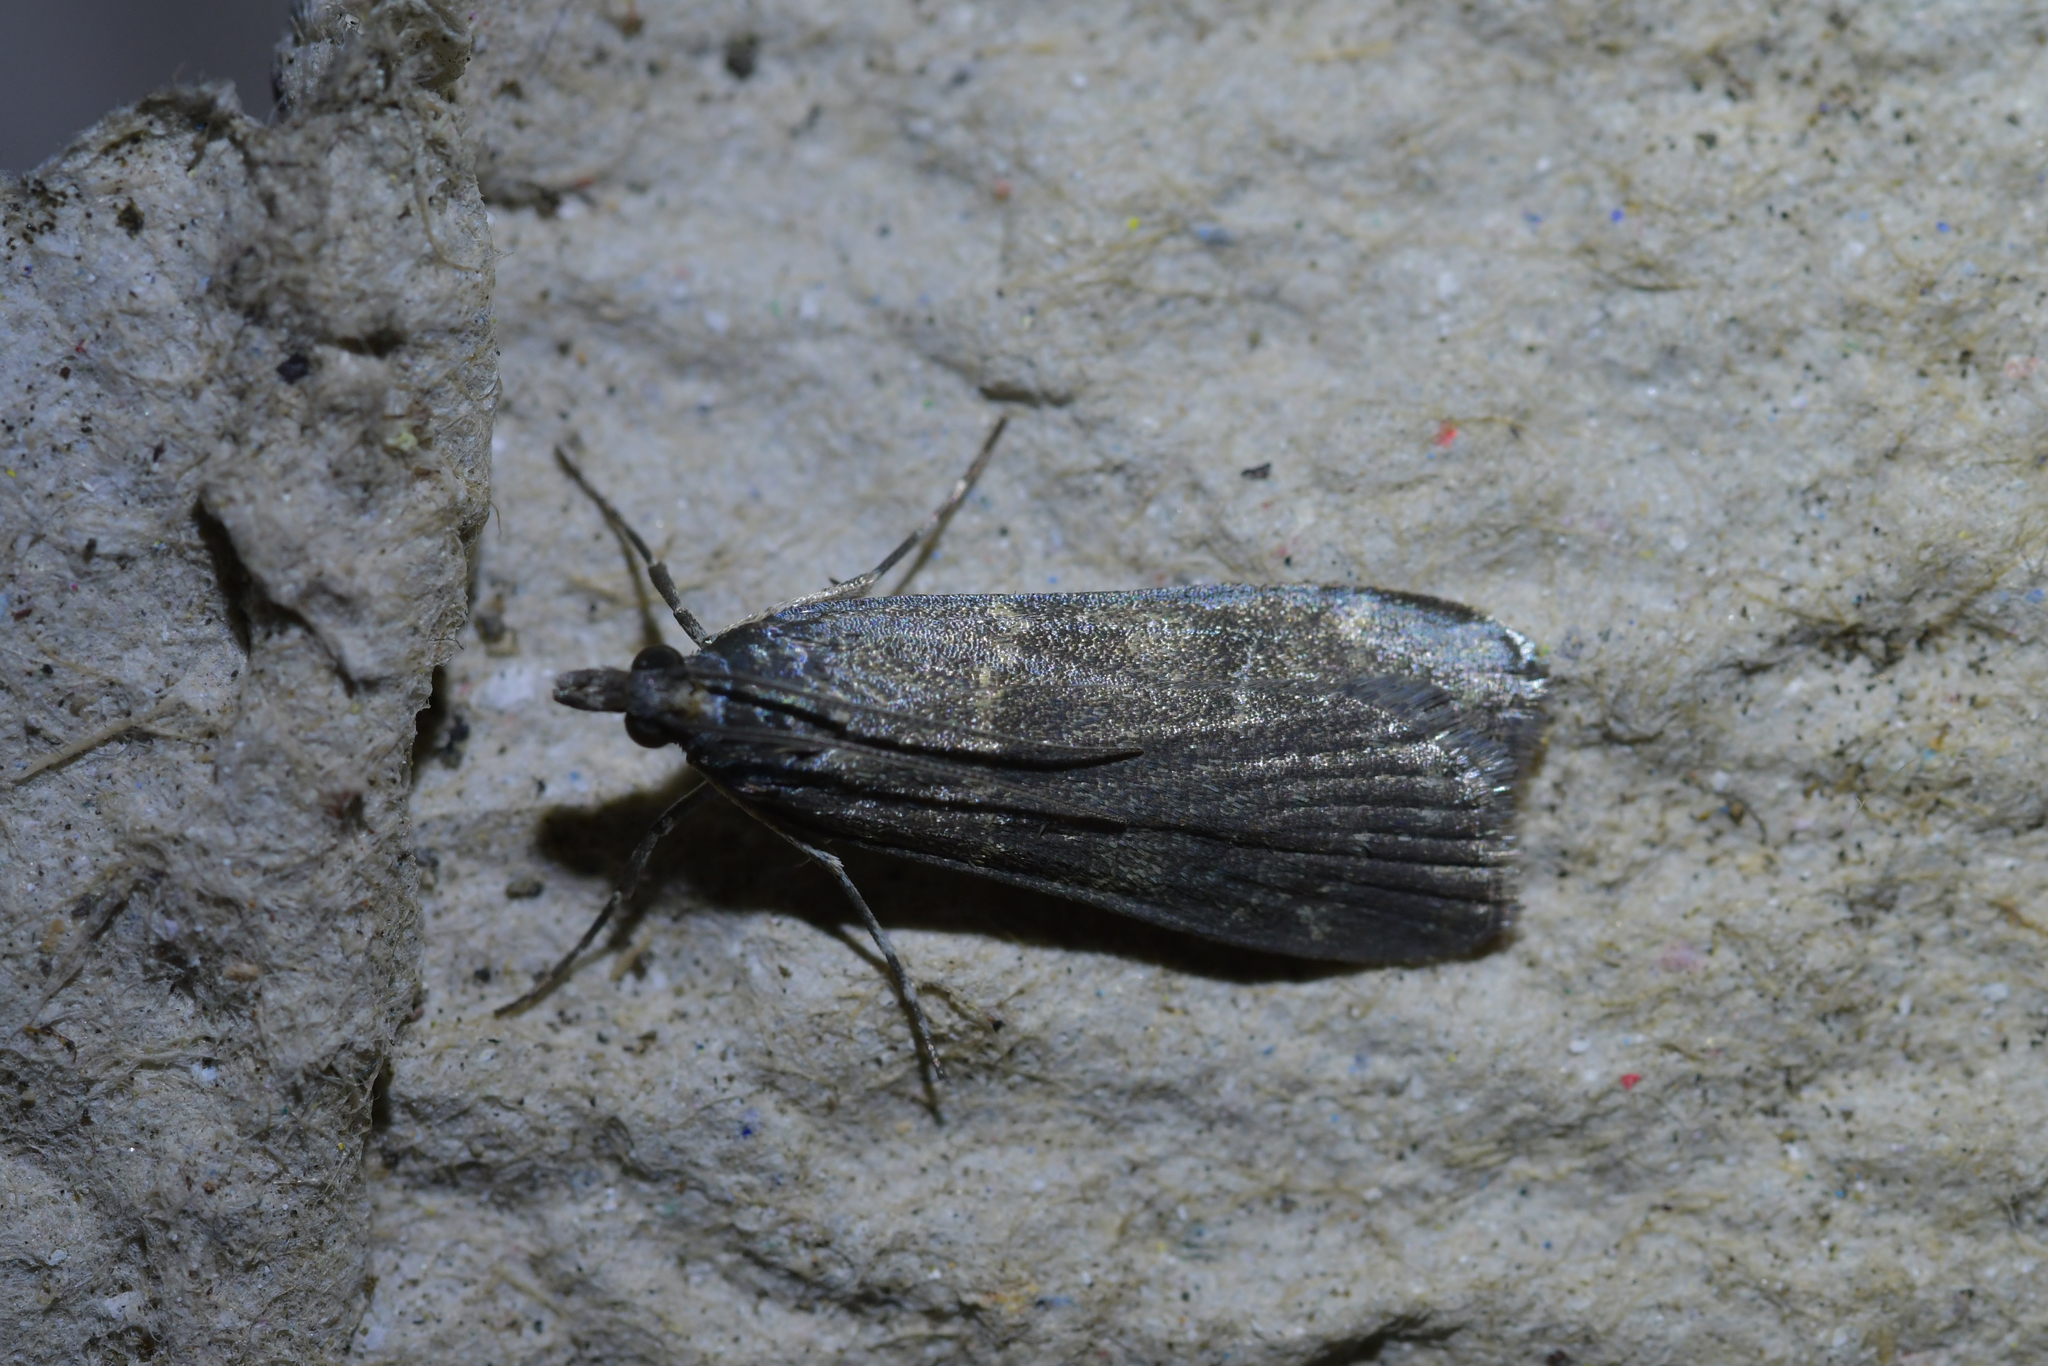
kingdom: Animalia
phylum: Arthropoda
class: Insecta
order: Lepidoptera
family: Crambidae
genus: Eudonia
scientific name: Eudonia cataxesta
